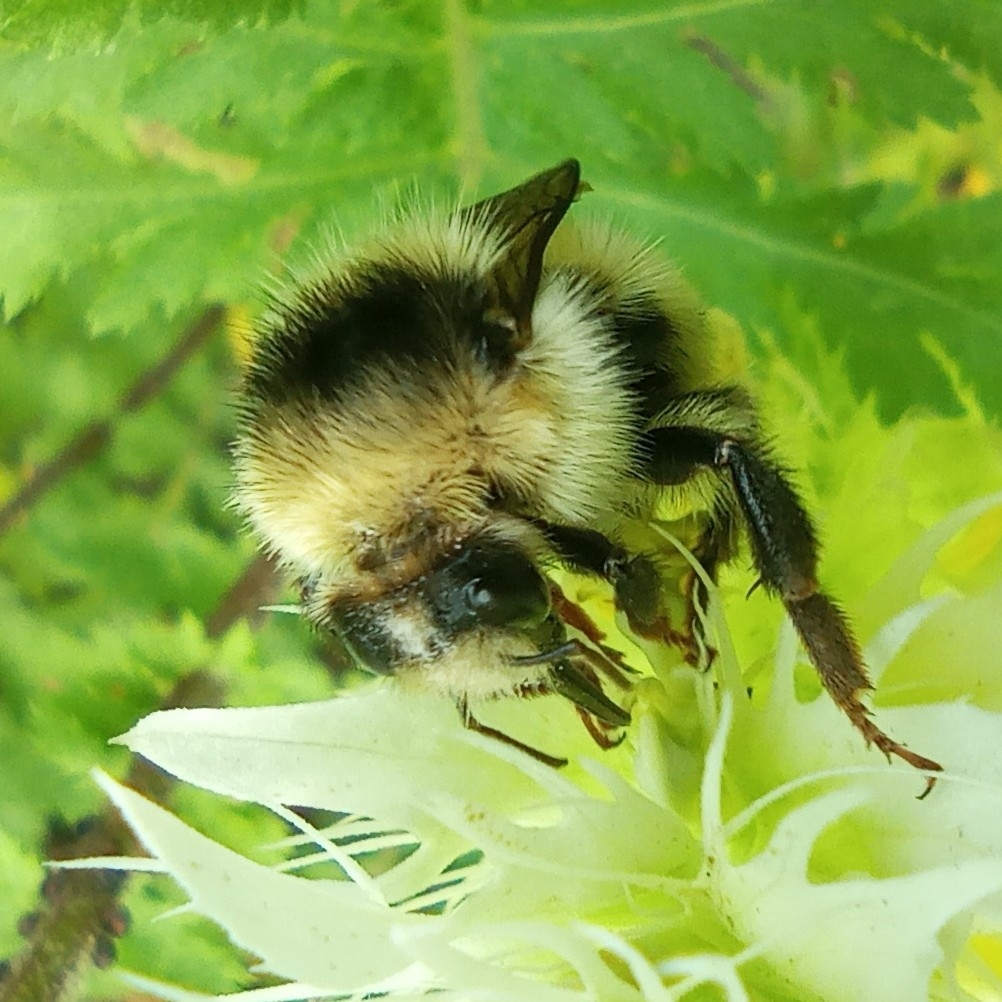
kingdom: Animalia
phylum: Arthropoda
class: Insecta
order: Hymenoptera
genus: Thoracobombus
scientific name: Thoracobombus
